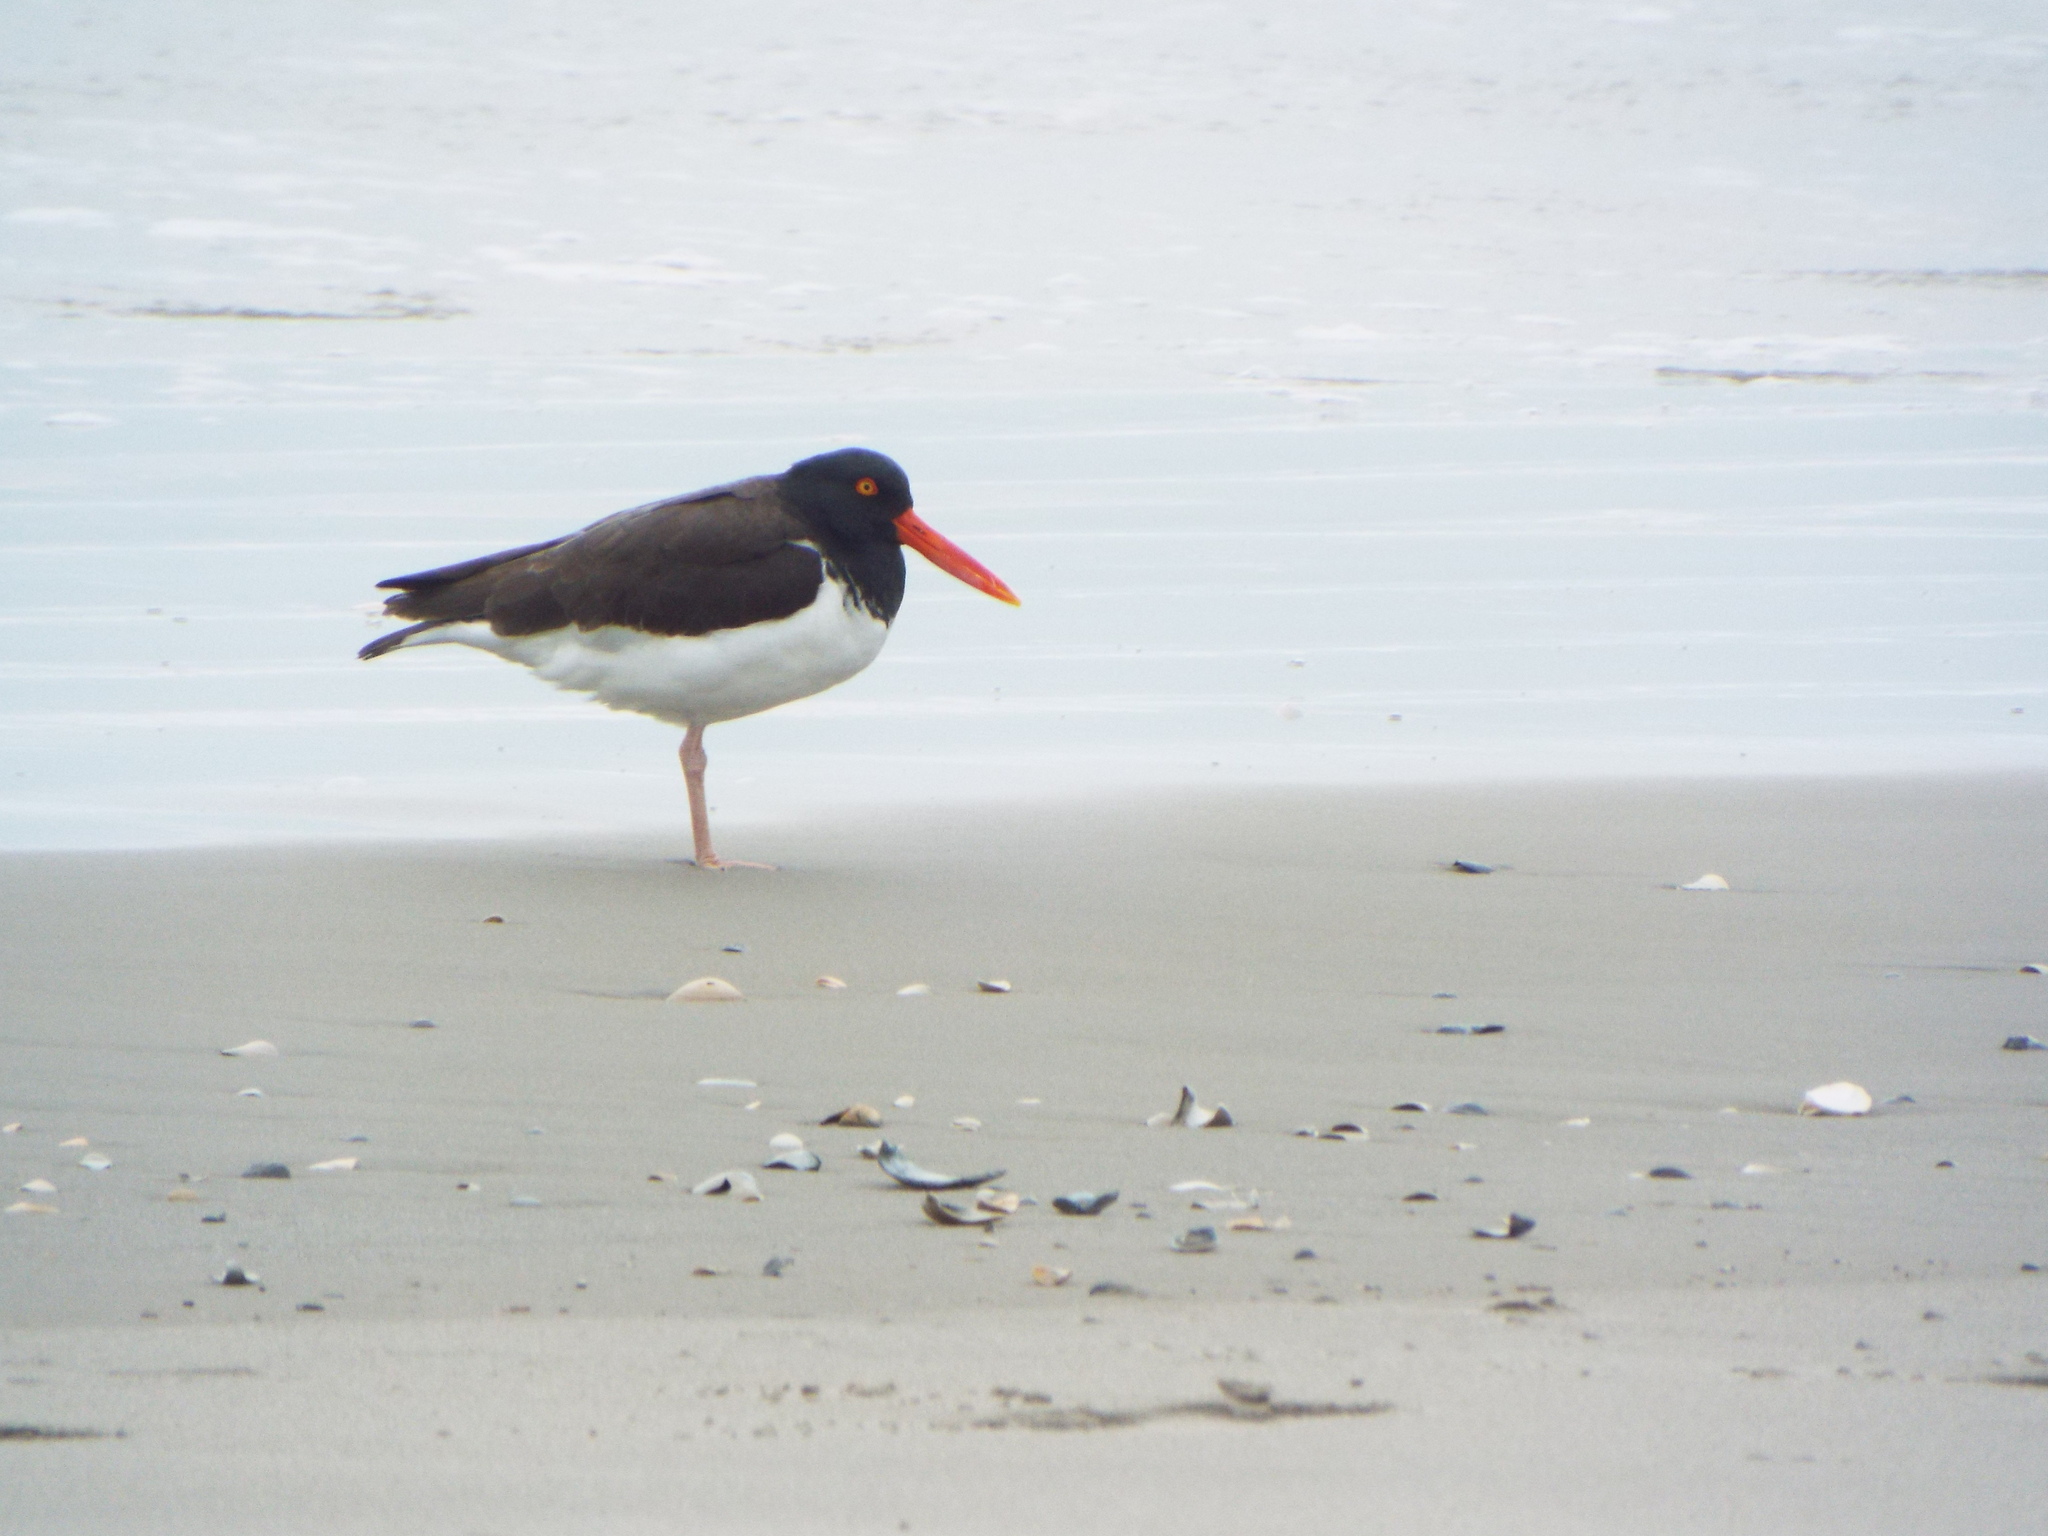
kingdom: Animalia
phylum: Chordata
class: Aves
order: Charadriiformes
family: Haematopodidae
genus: Haematopus
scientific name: Haematopus palliatus
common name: American oystercatcher
